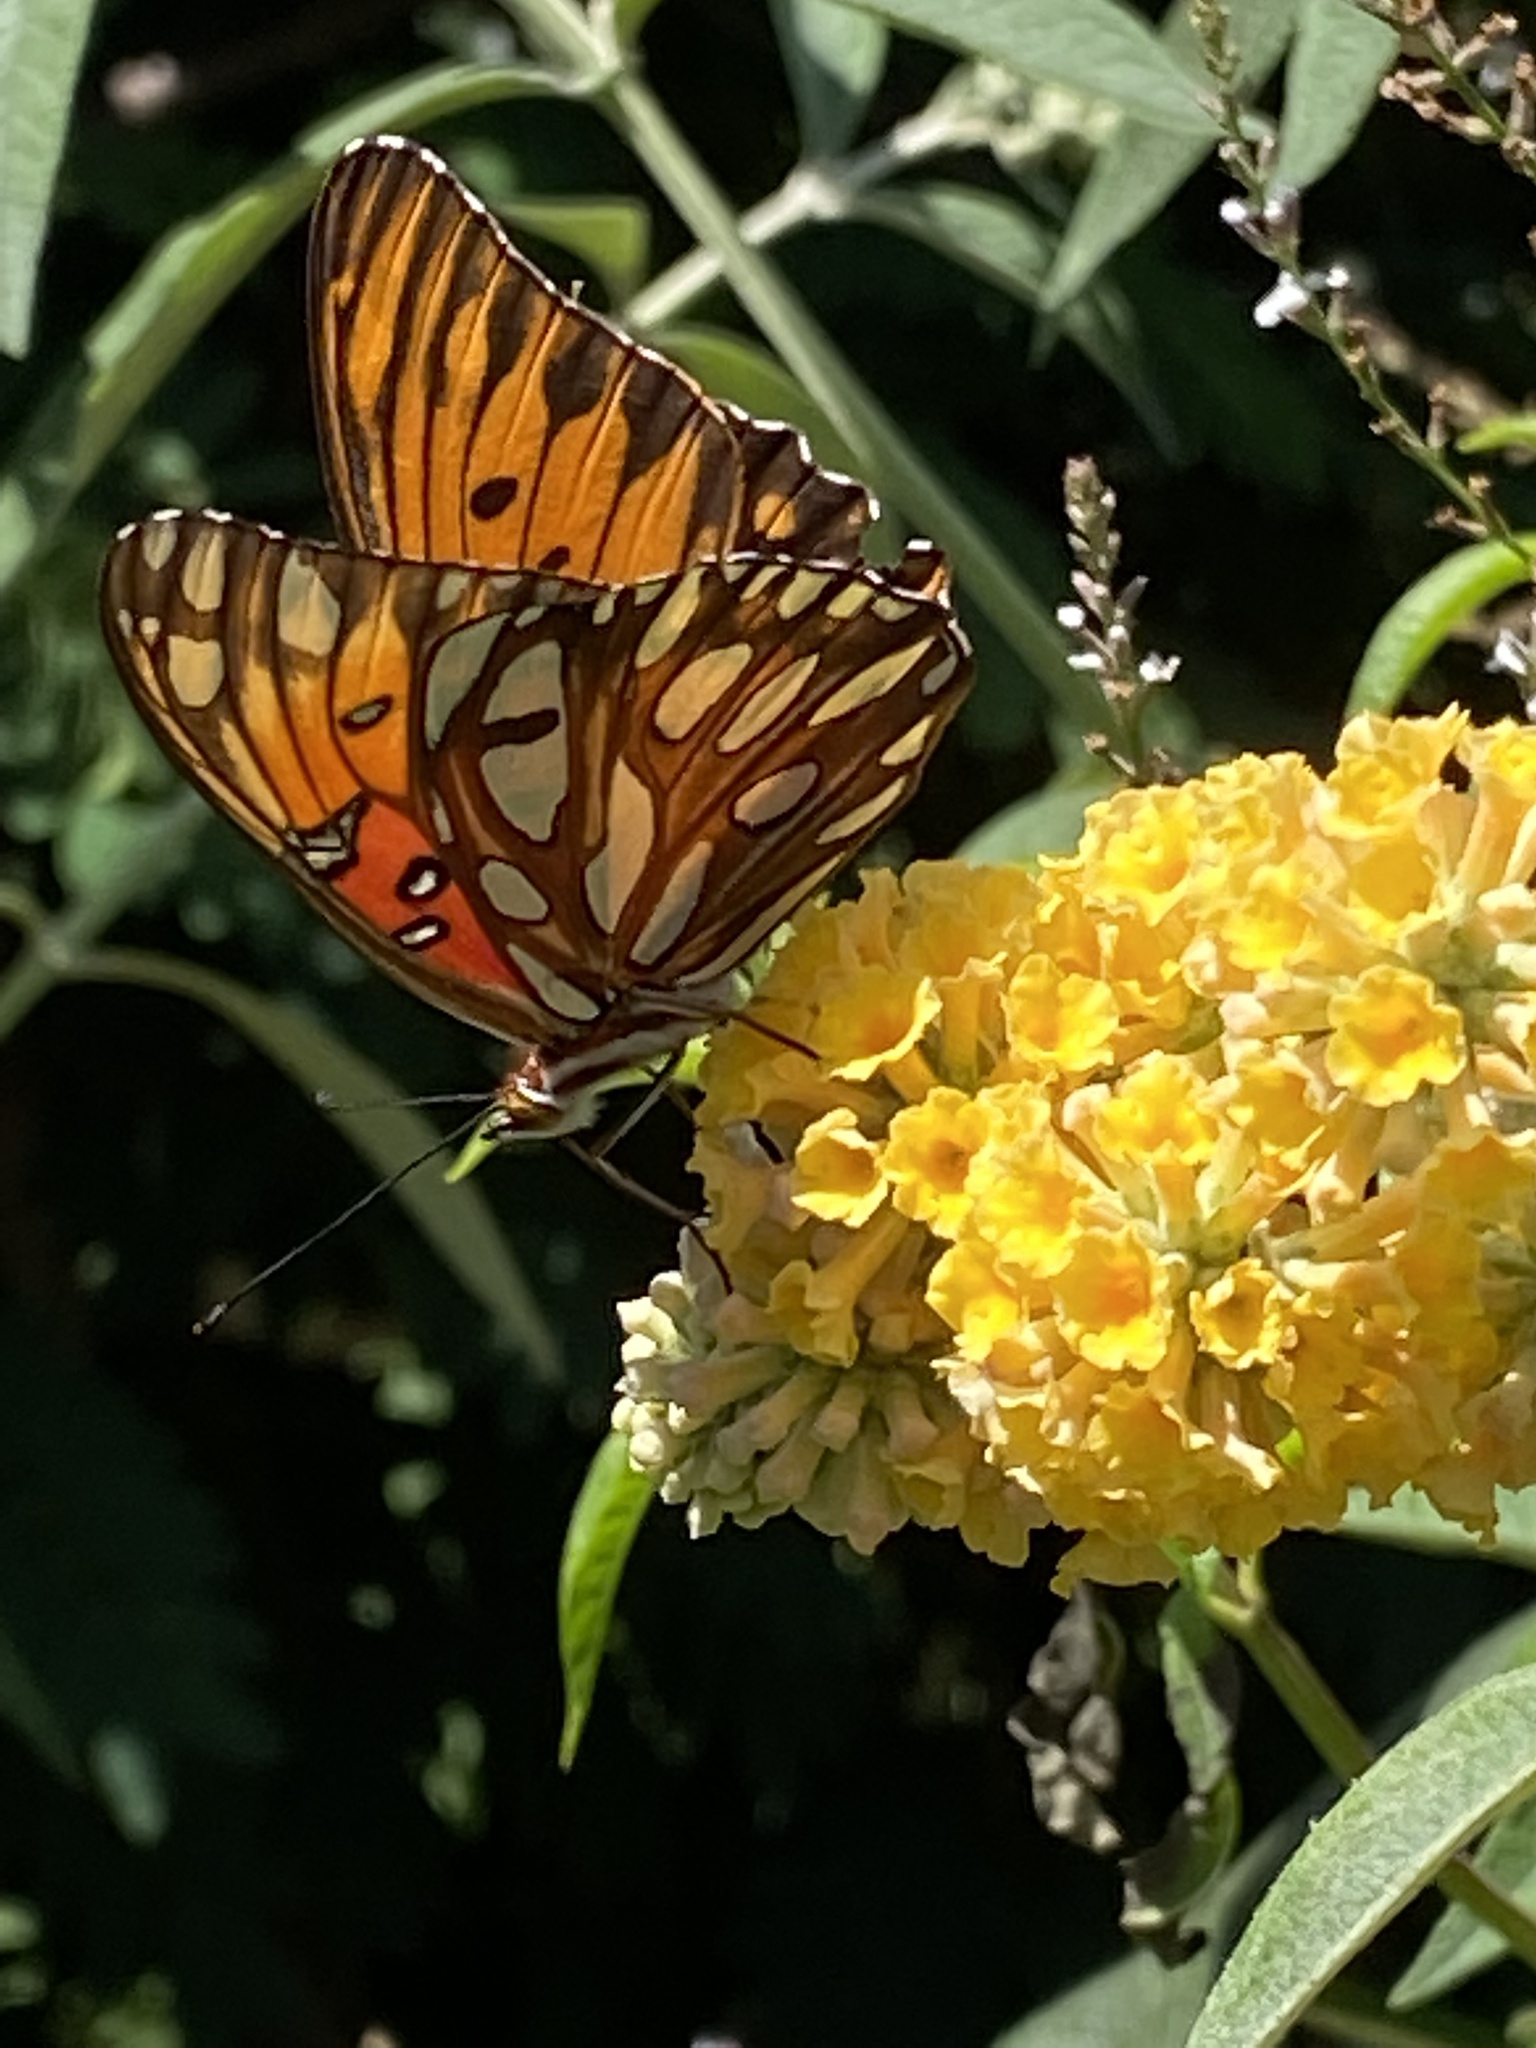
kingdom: Animalia
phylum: Arthropoda
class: Insecta
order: Lepidoptera
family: Nymphalidae
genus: Dione
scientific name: Dione vanillae
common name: Gulf fritillary
